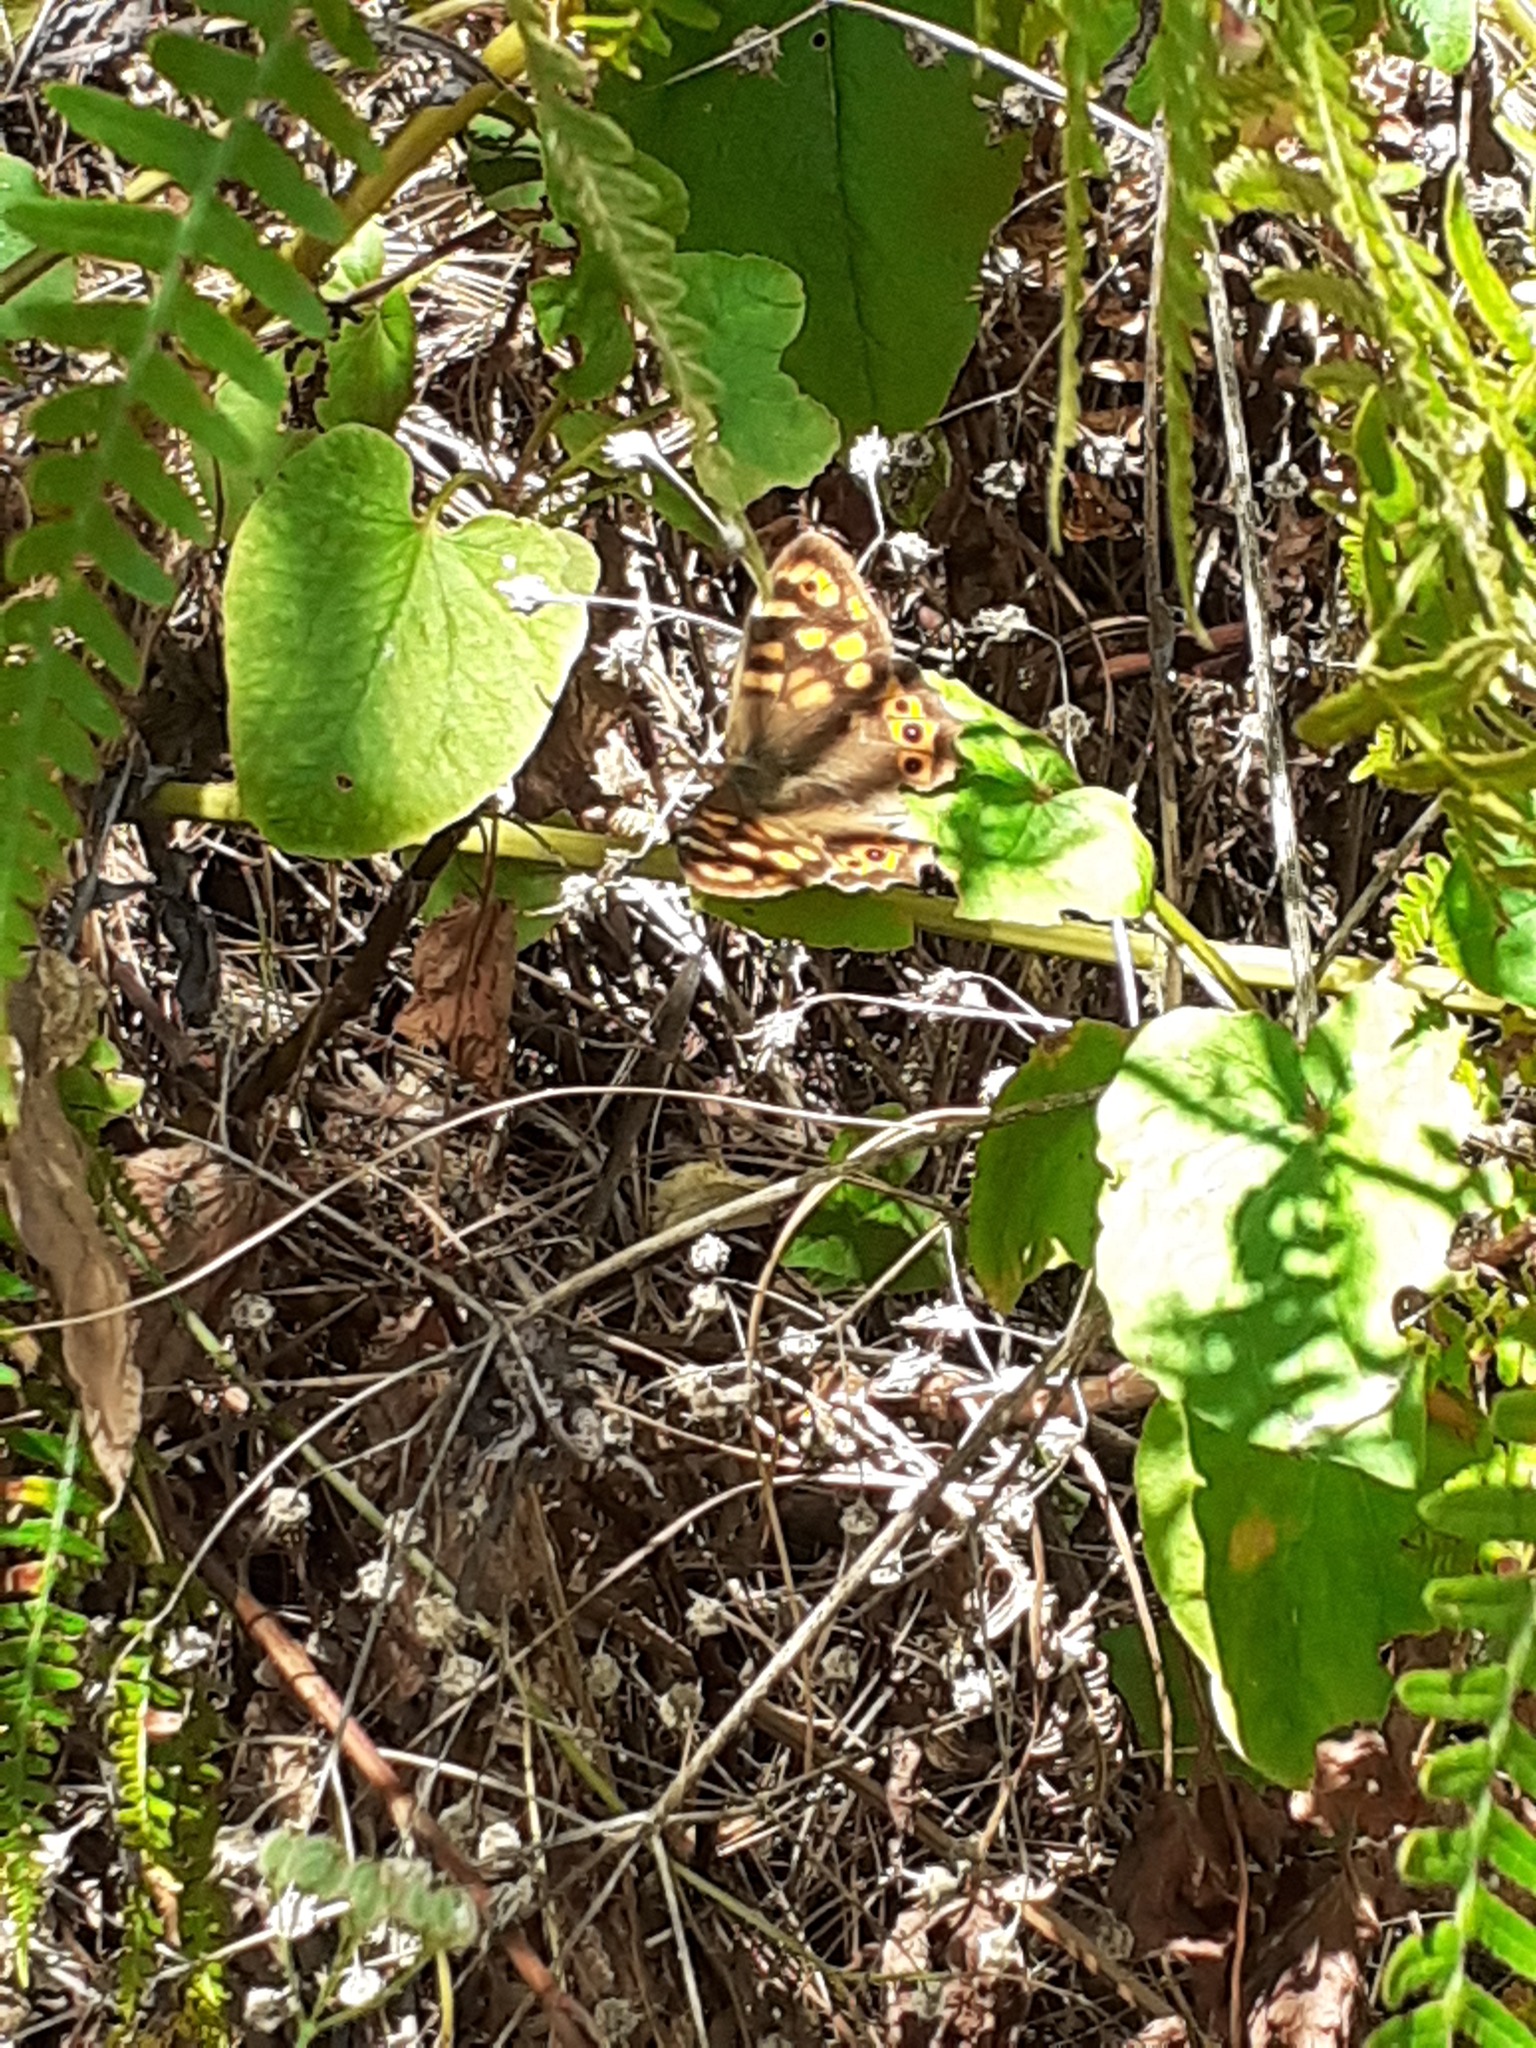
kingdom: Animalia
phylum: Arthropoda
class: Insecta
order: Lepidoptera
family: Nymphalidae
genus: Pararge
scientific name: Pararge aegeria
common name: Speckled wood
